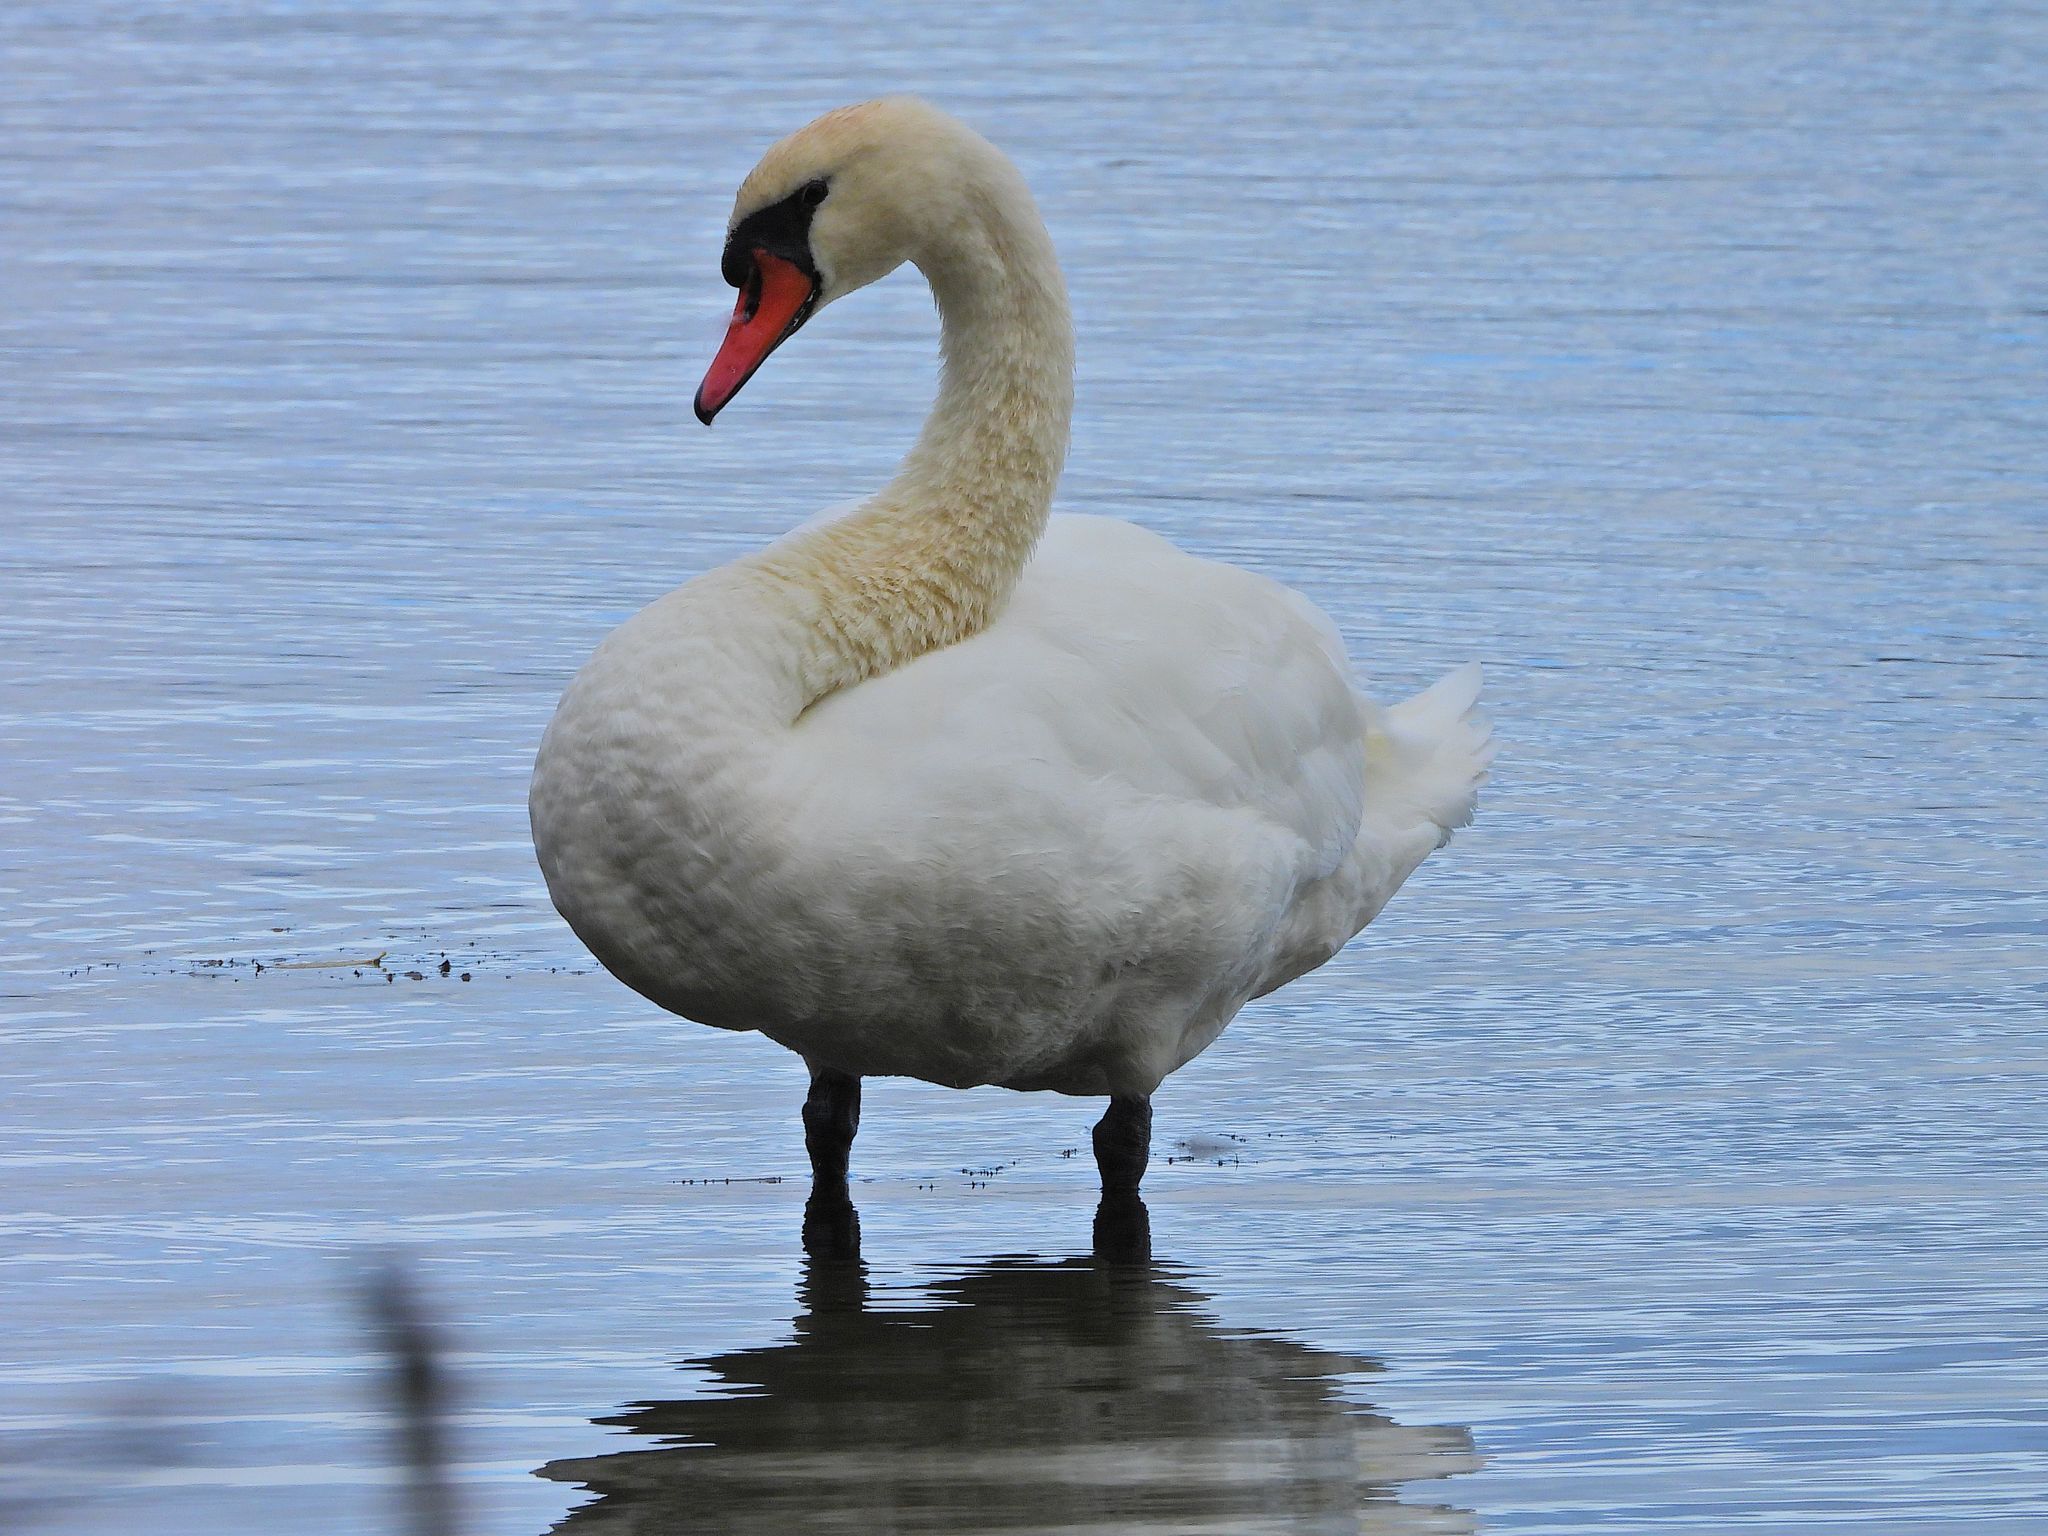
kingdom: Animalia
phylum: Chordata
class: Aves
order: Anseriformes
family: Anatidae
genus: Cygnus
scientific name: Cygnus olor
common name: Mute swan
